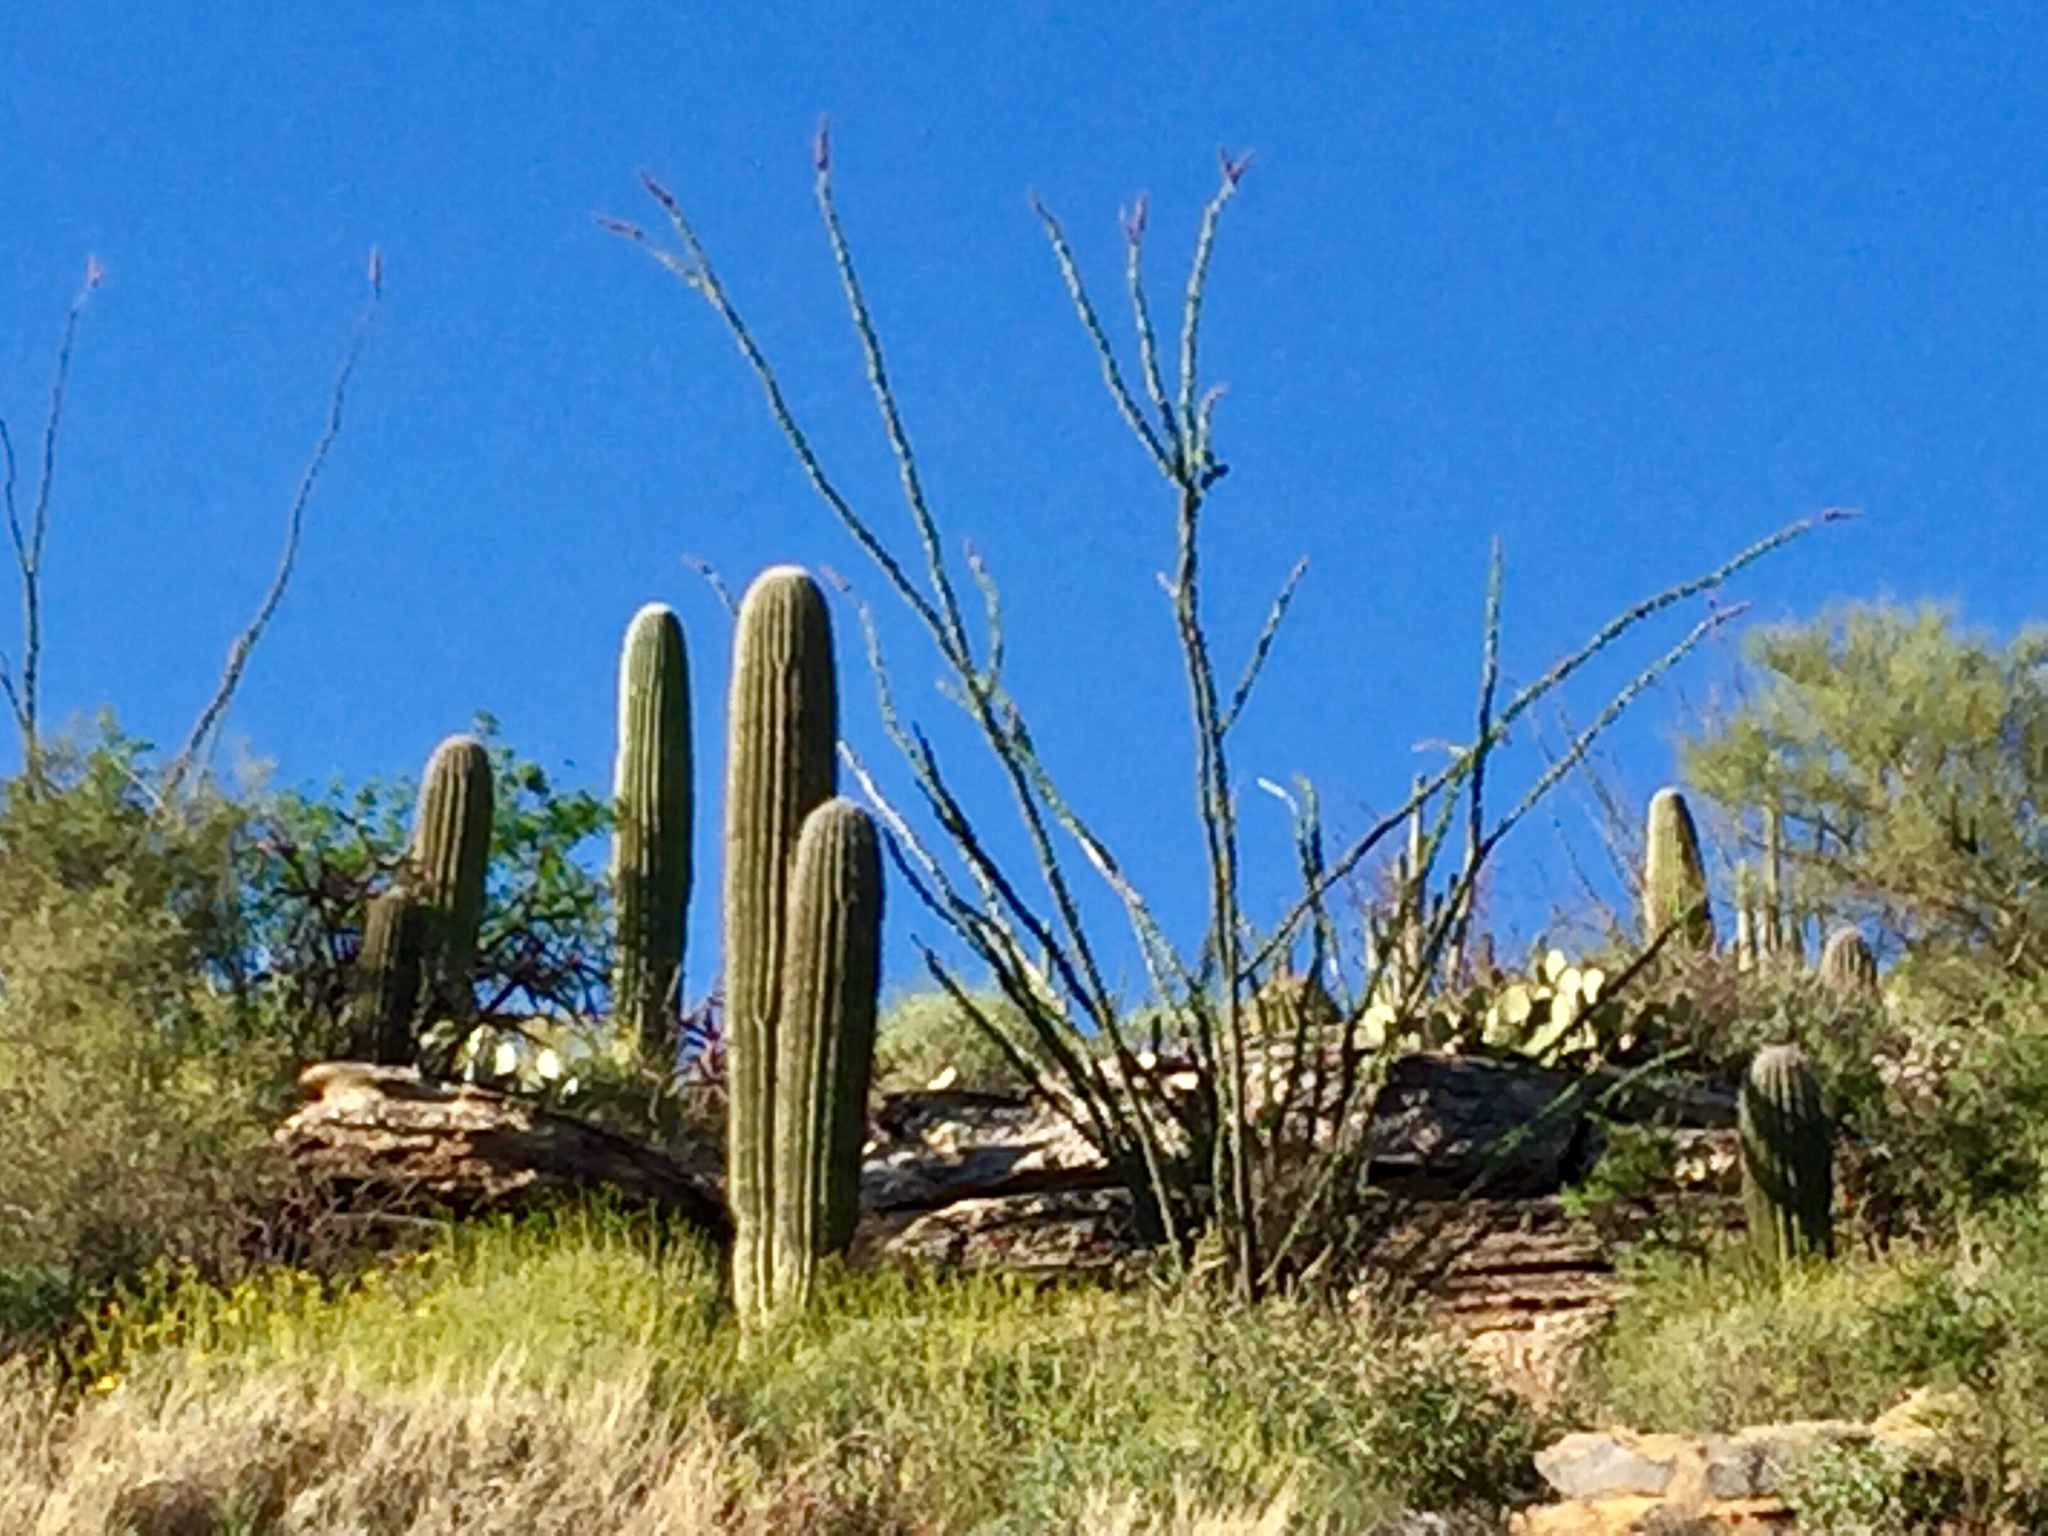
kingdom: Plantae
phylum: Tracheophyta
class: Magnoliopsida
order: Ericales
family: Fouquieriaceae
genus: Fouquieria
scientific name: Fouquieria splendens
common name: Vine-cactus
